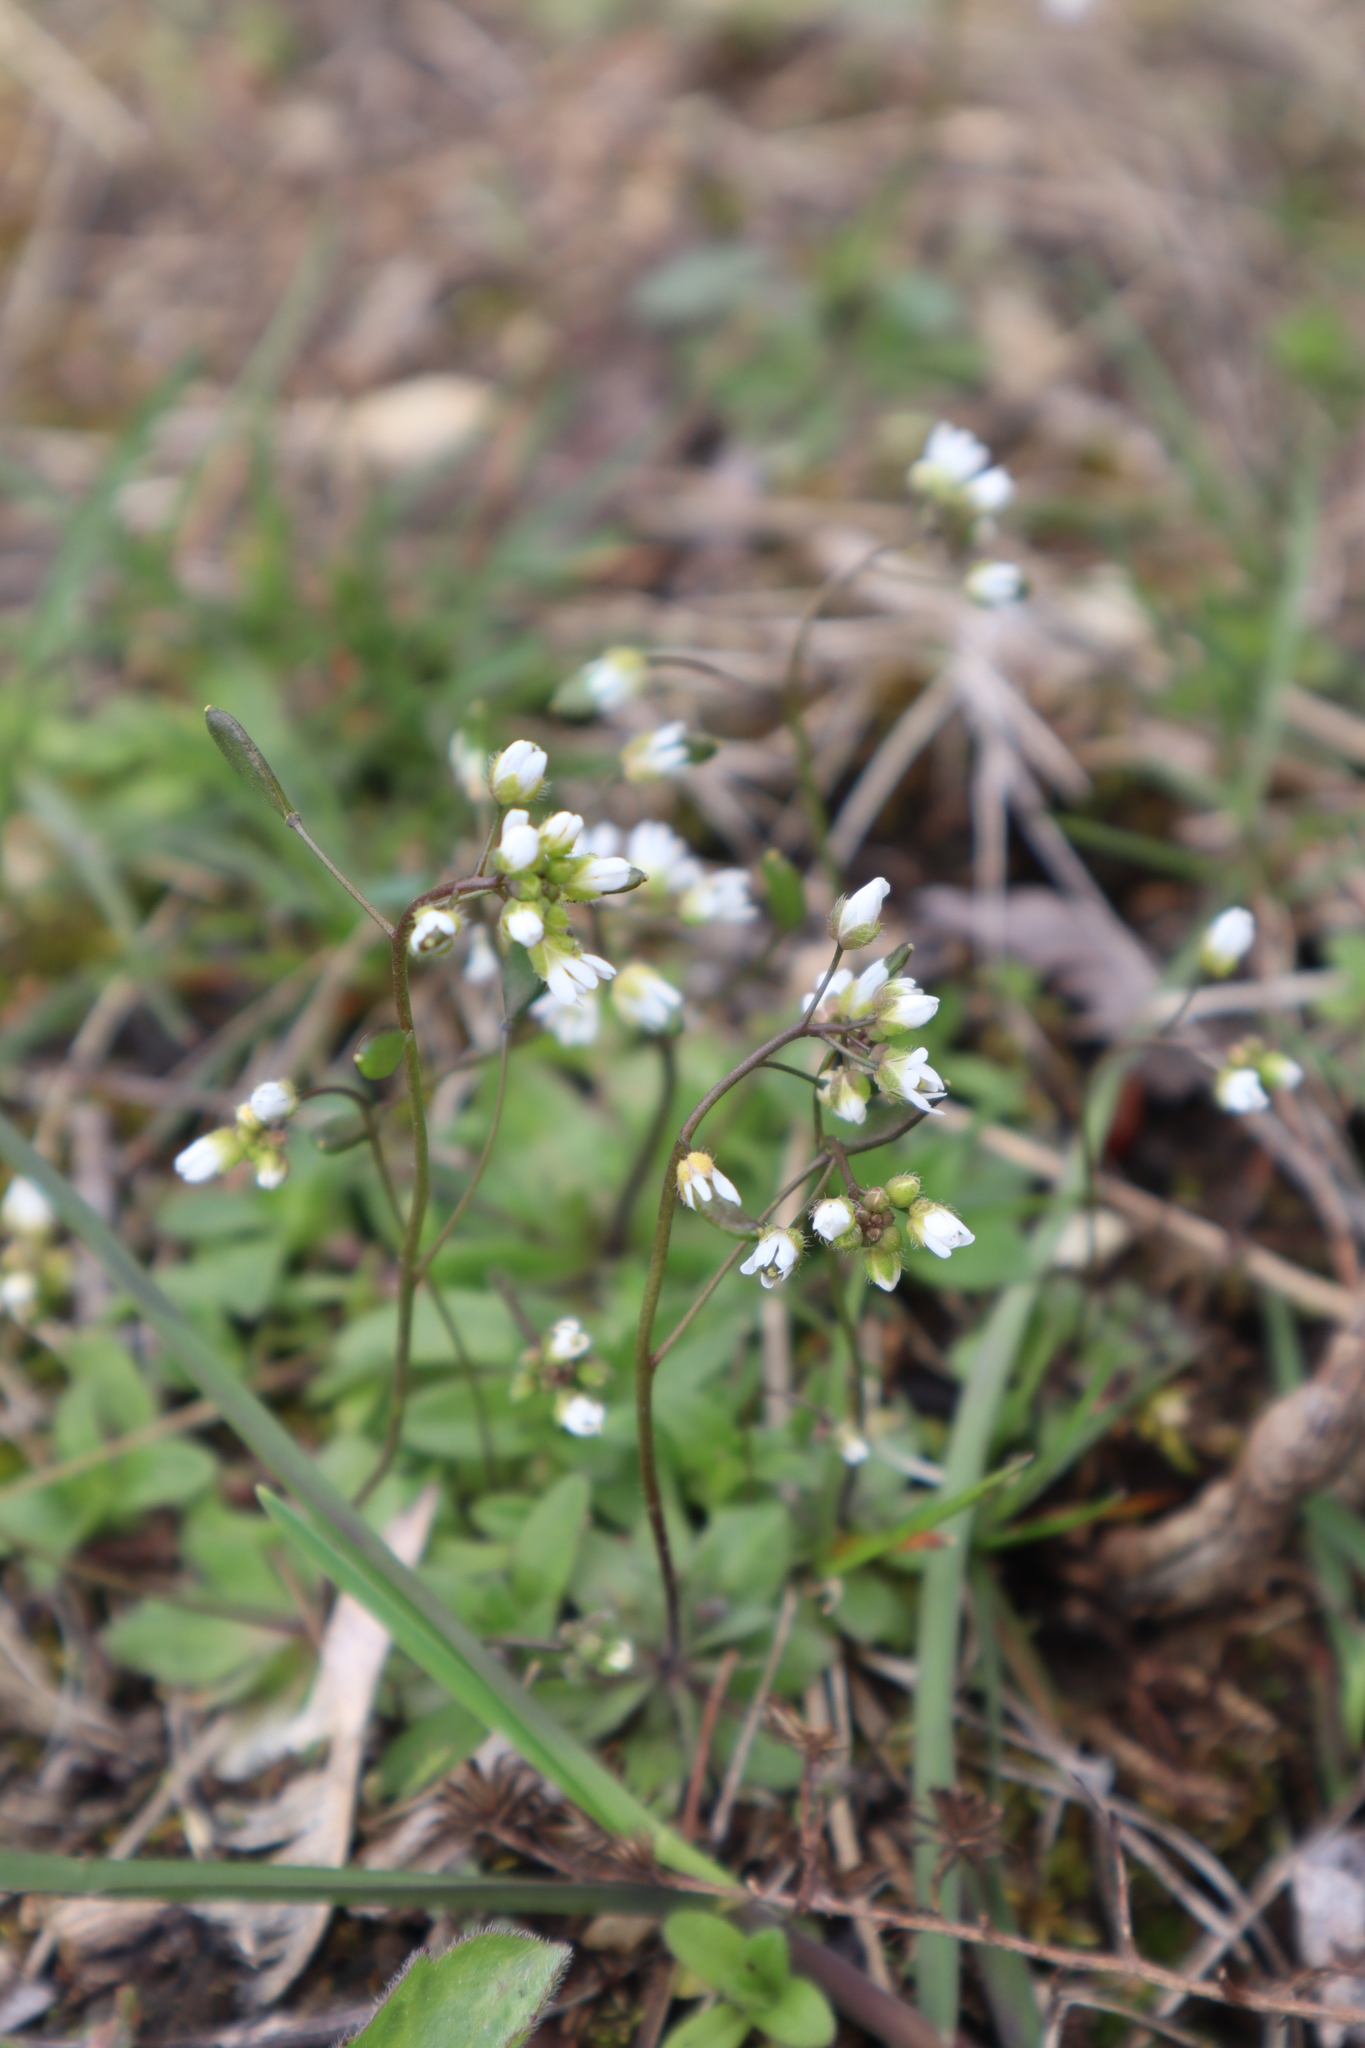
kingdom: Plantae
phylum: Tracheophyta
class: Magnoliopsida
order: Brassicales
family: Brassicaceae
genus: Draba
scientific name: Draba verna
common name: Spring draba
